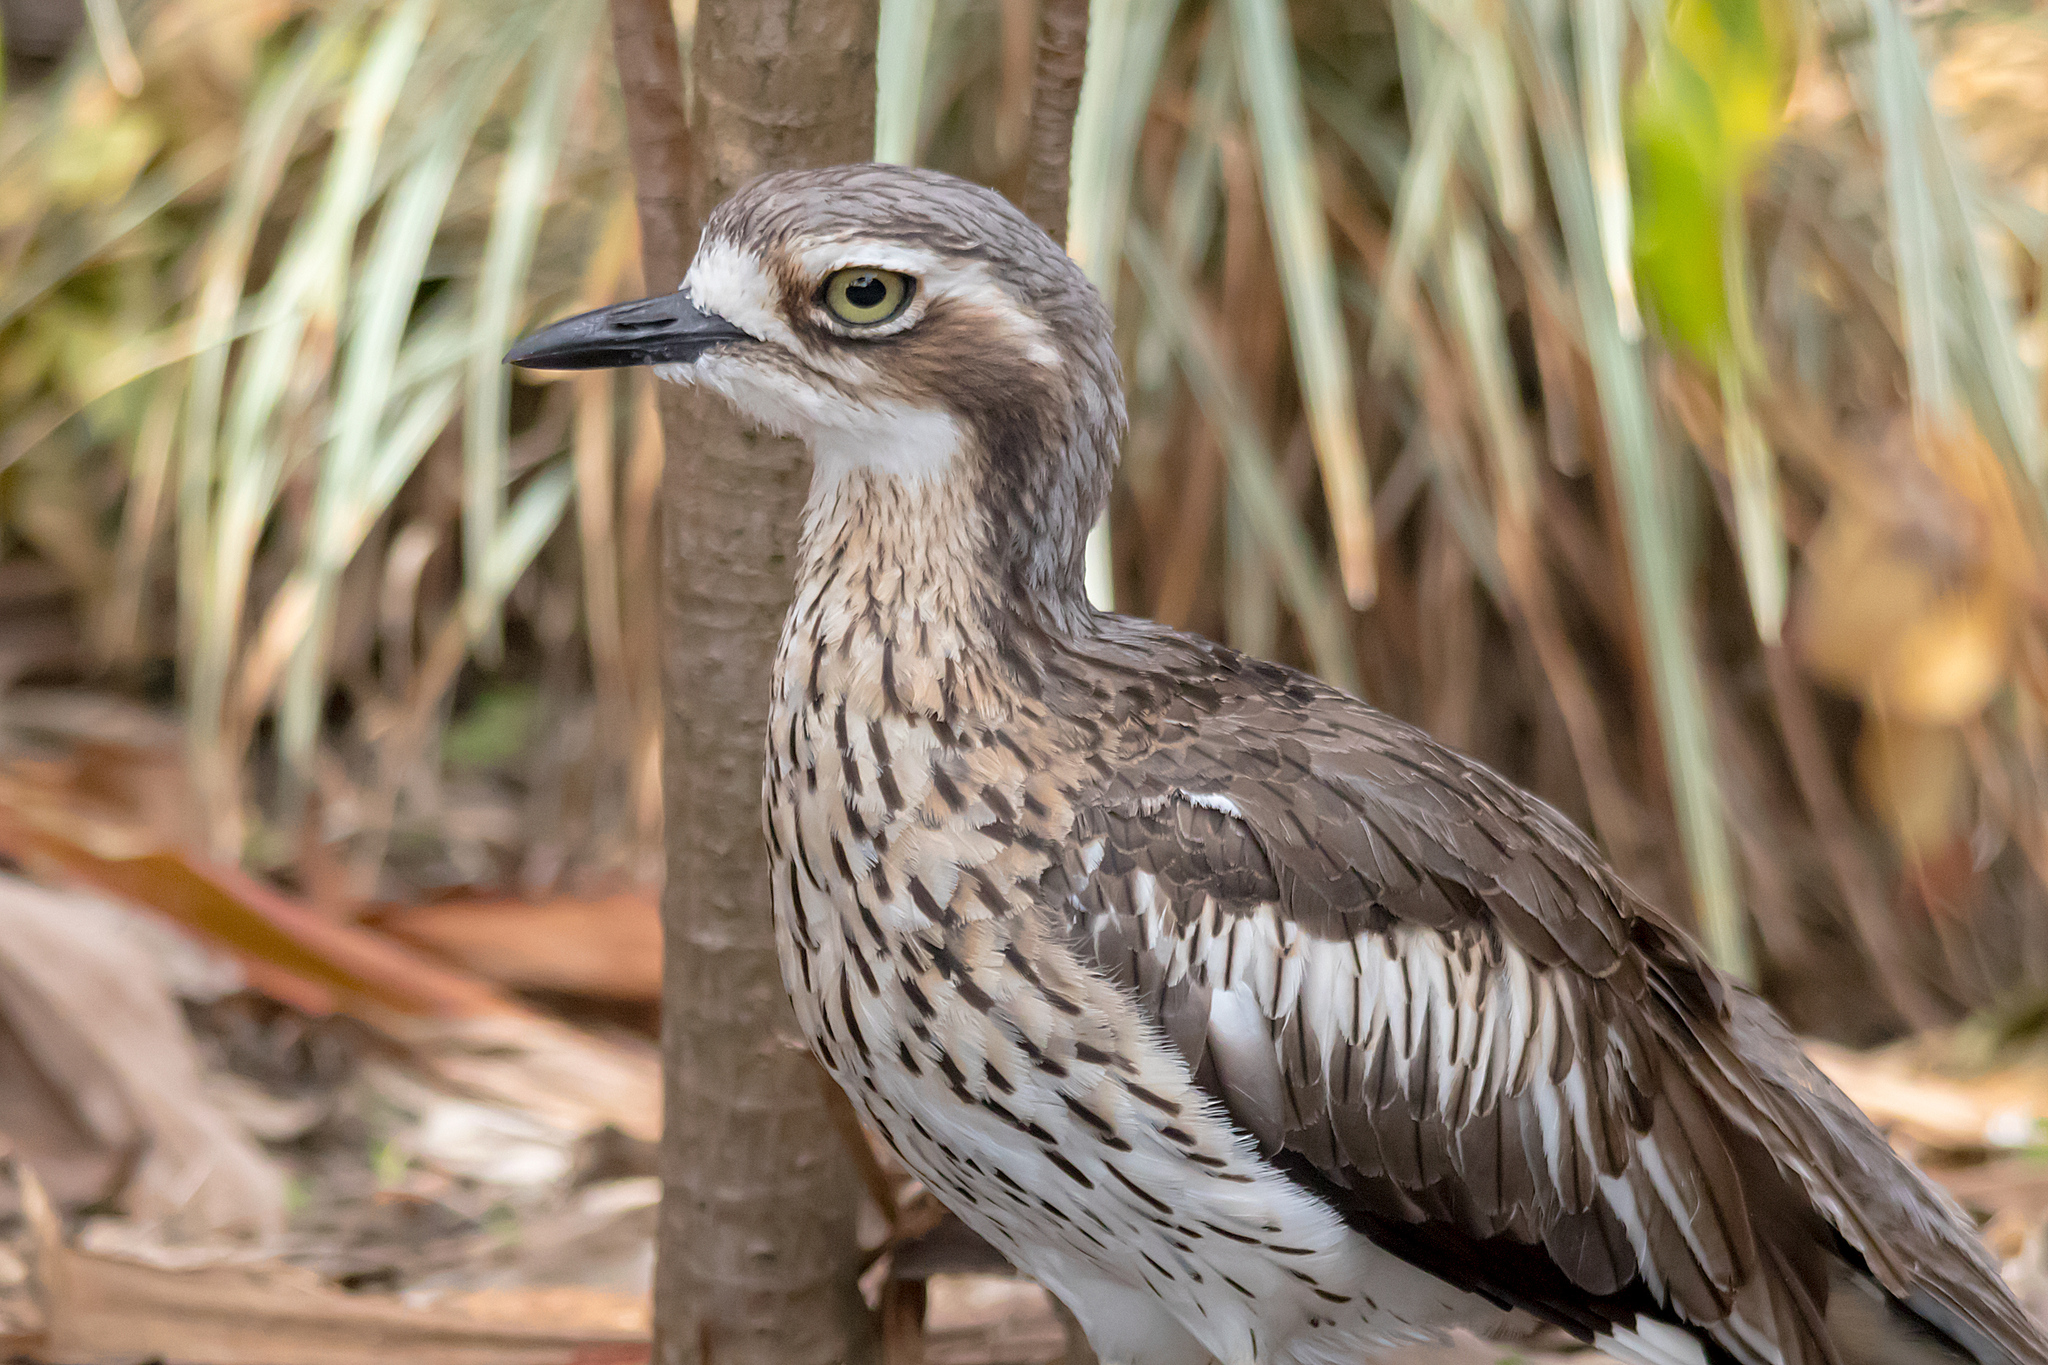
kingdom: Animalia
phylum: Chordata
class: Aves
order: Charadriiformes
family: Burhinidae
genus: Burhinus
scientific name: Burhinus grallarius
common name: Bush stone-curlew
